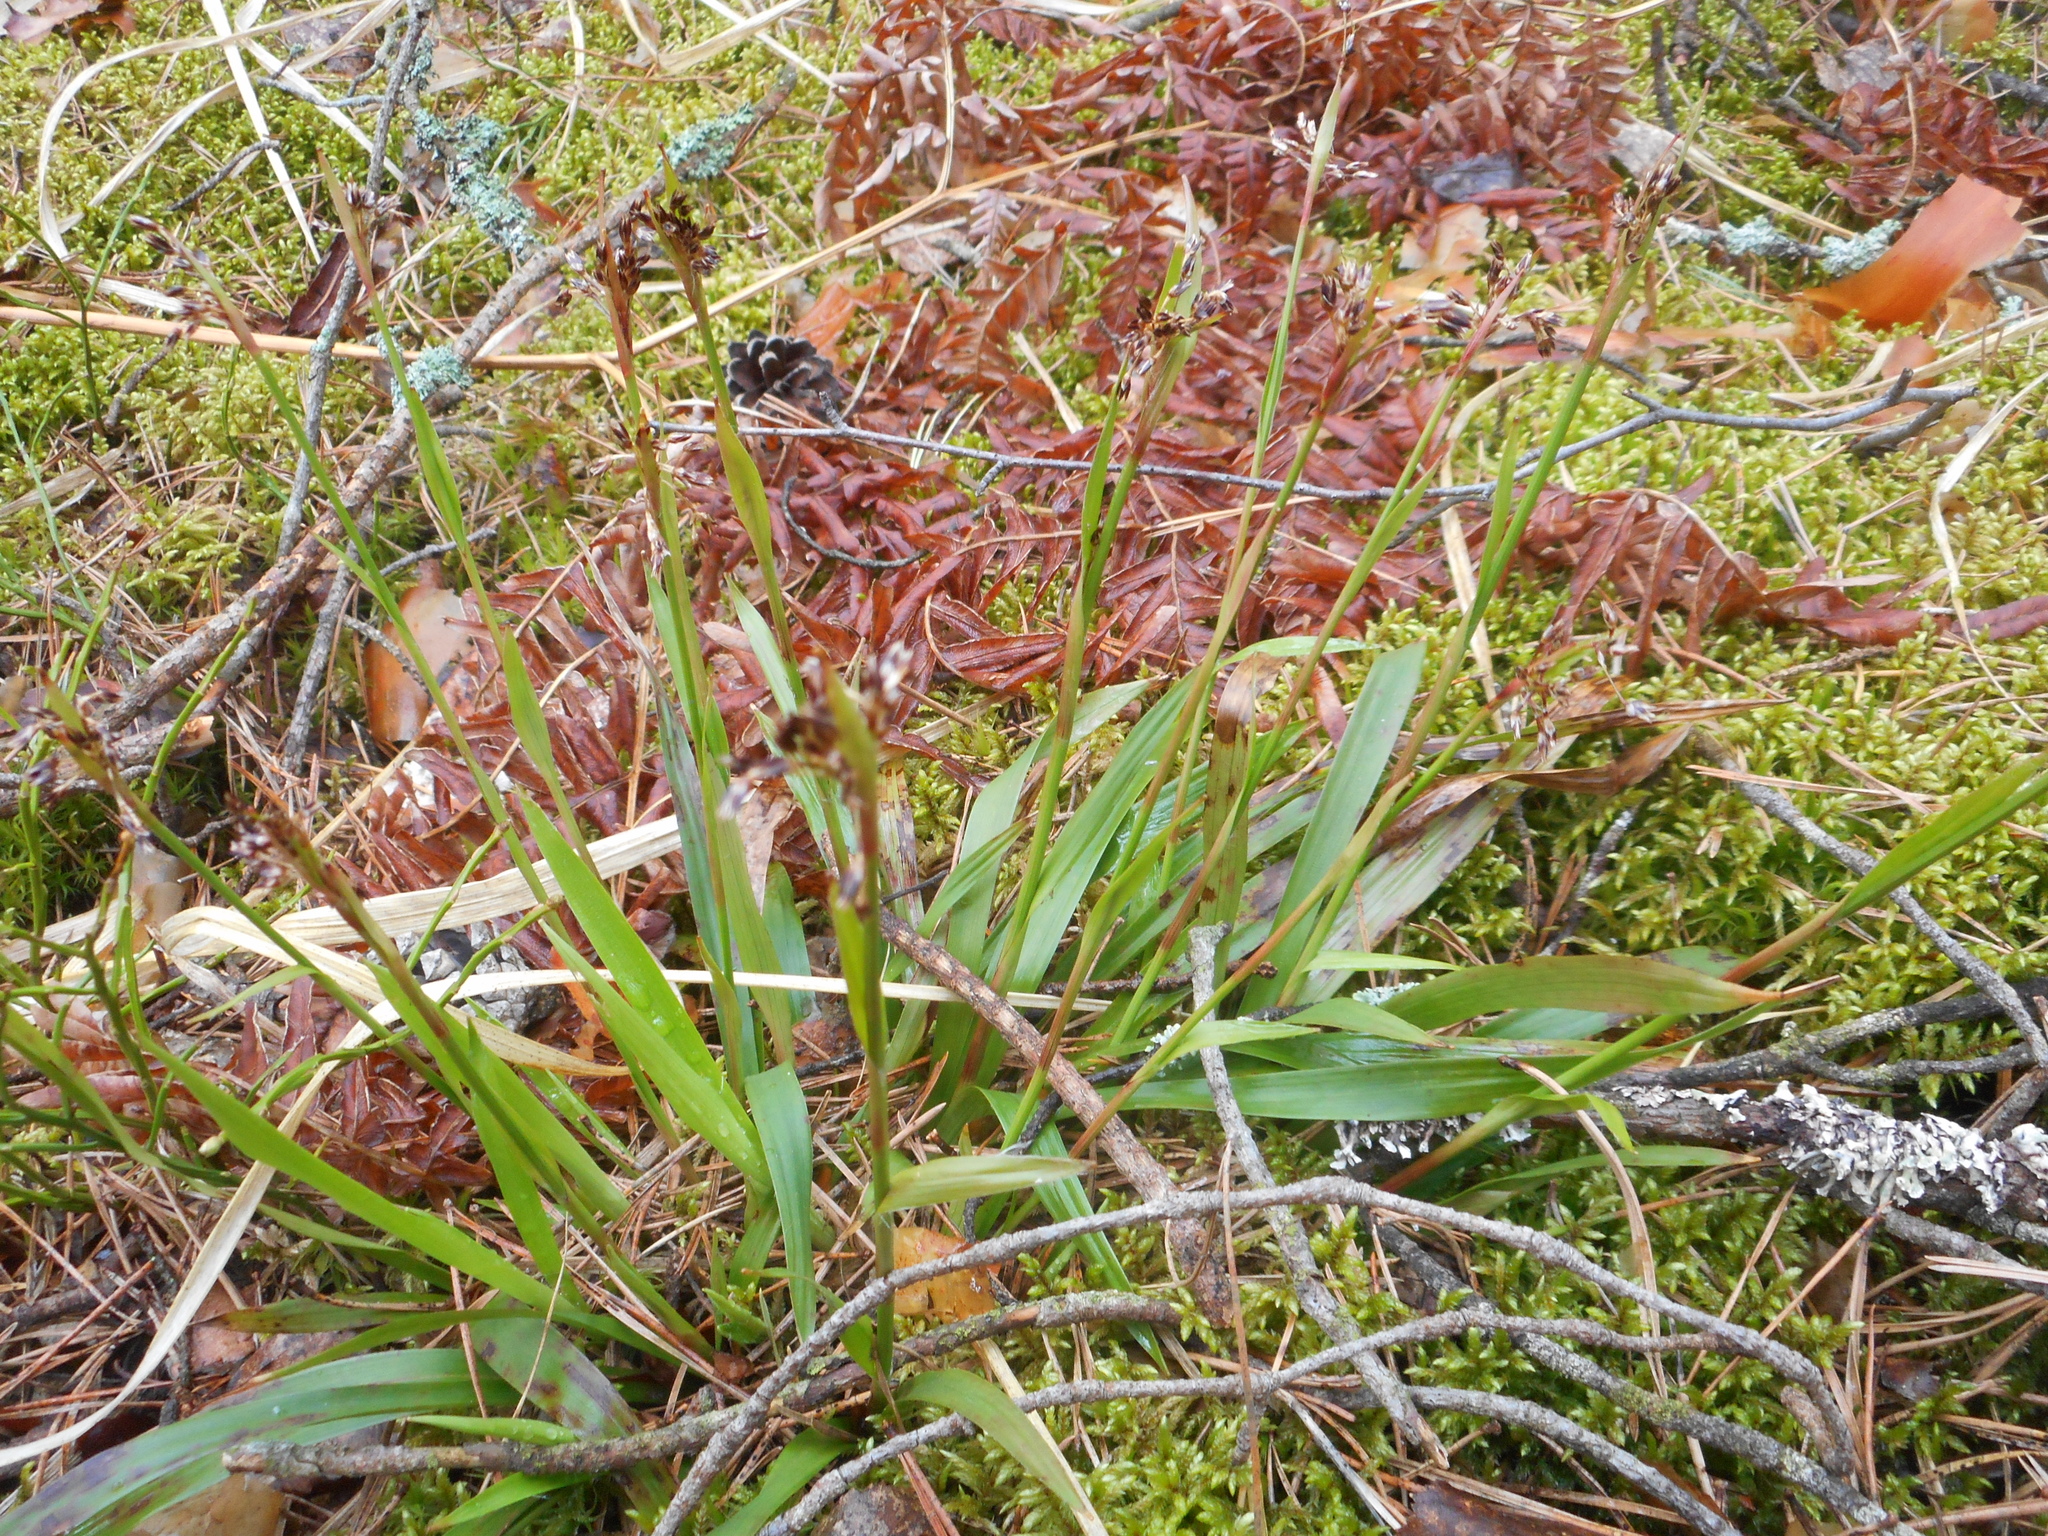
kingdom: Plantae
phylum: Tracheophyta
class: Liliopsida
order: Poales
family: Juncaceae
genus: Luzula
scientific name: Luzula pilosa
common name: Hairy wood-rush
